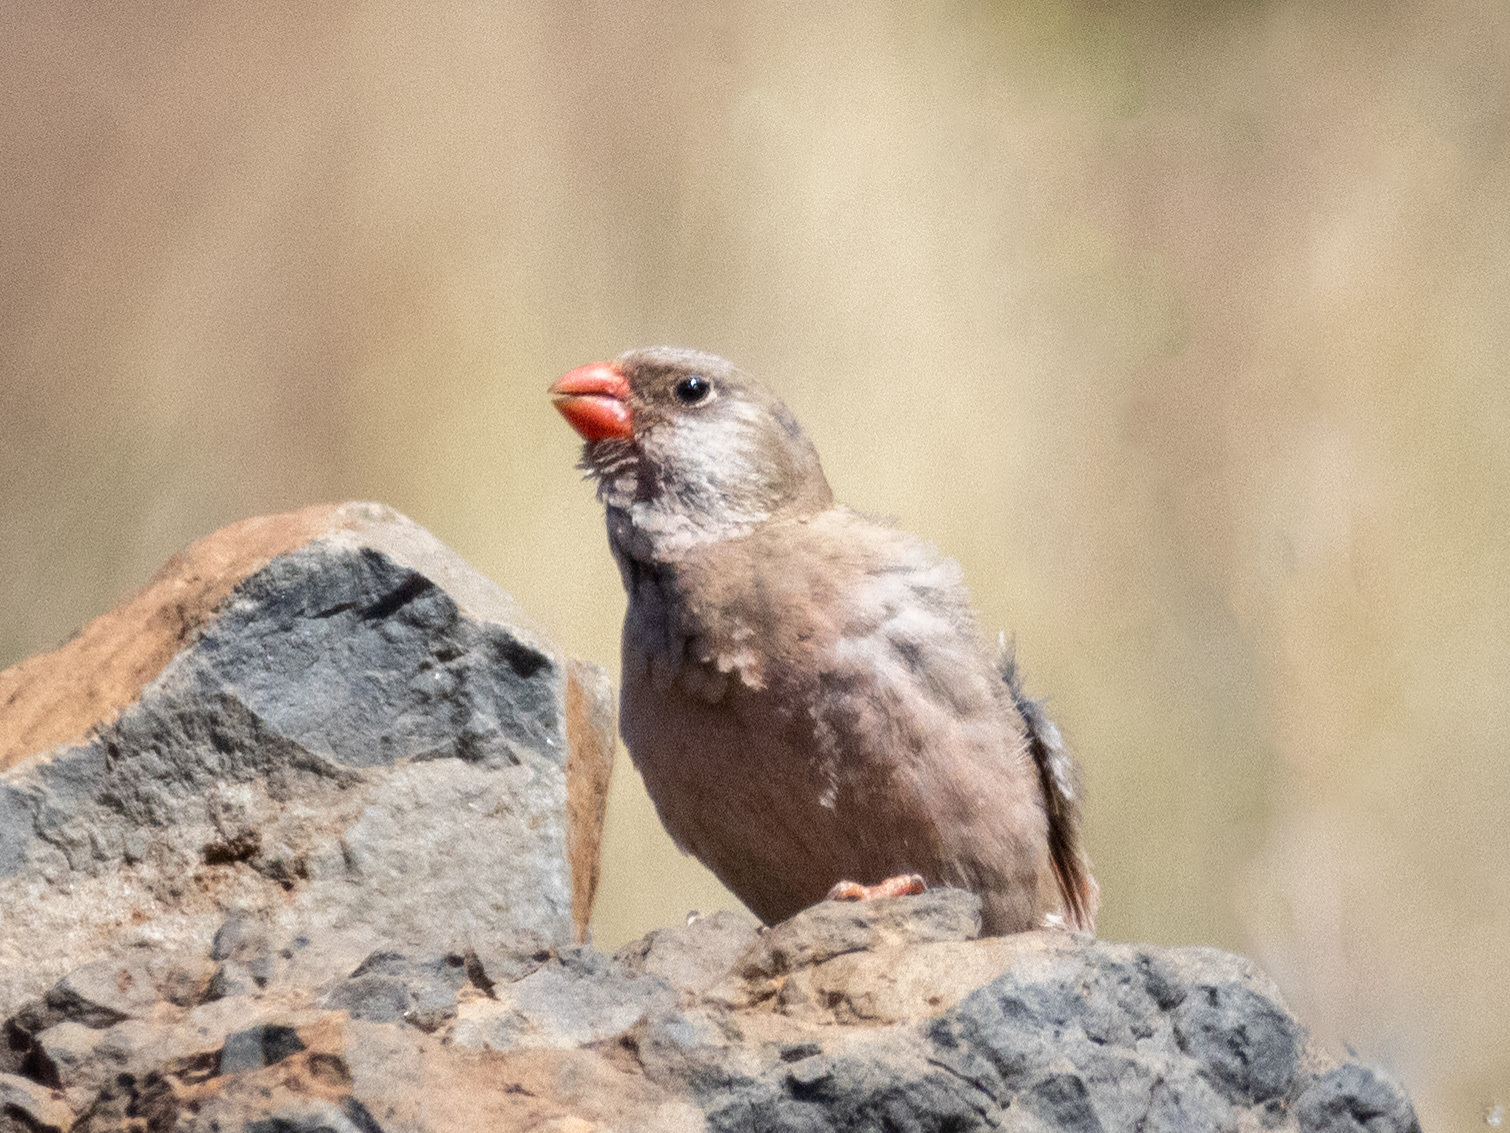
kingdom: Animalia
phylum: Chordata
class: Aves
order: Passeriformes
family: Fringillidae
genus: Bucanetes
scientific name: Bucanetes githagineus
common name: Trumpeter finch
